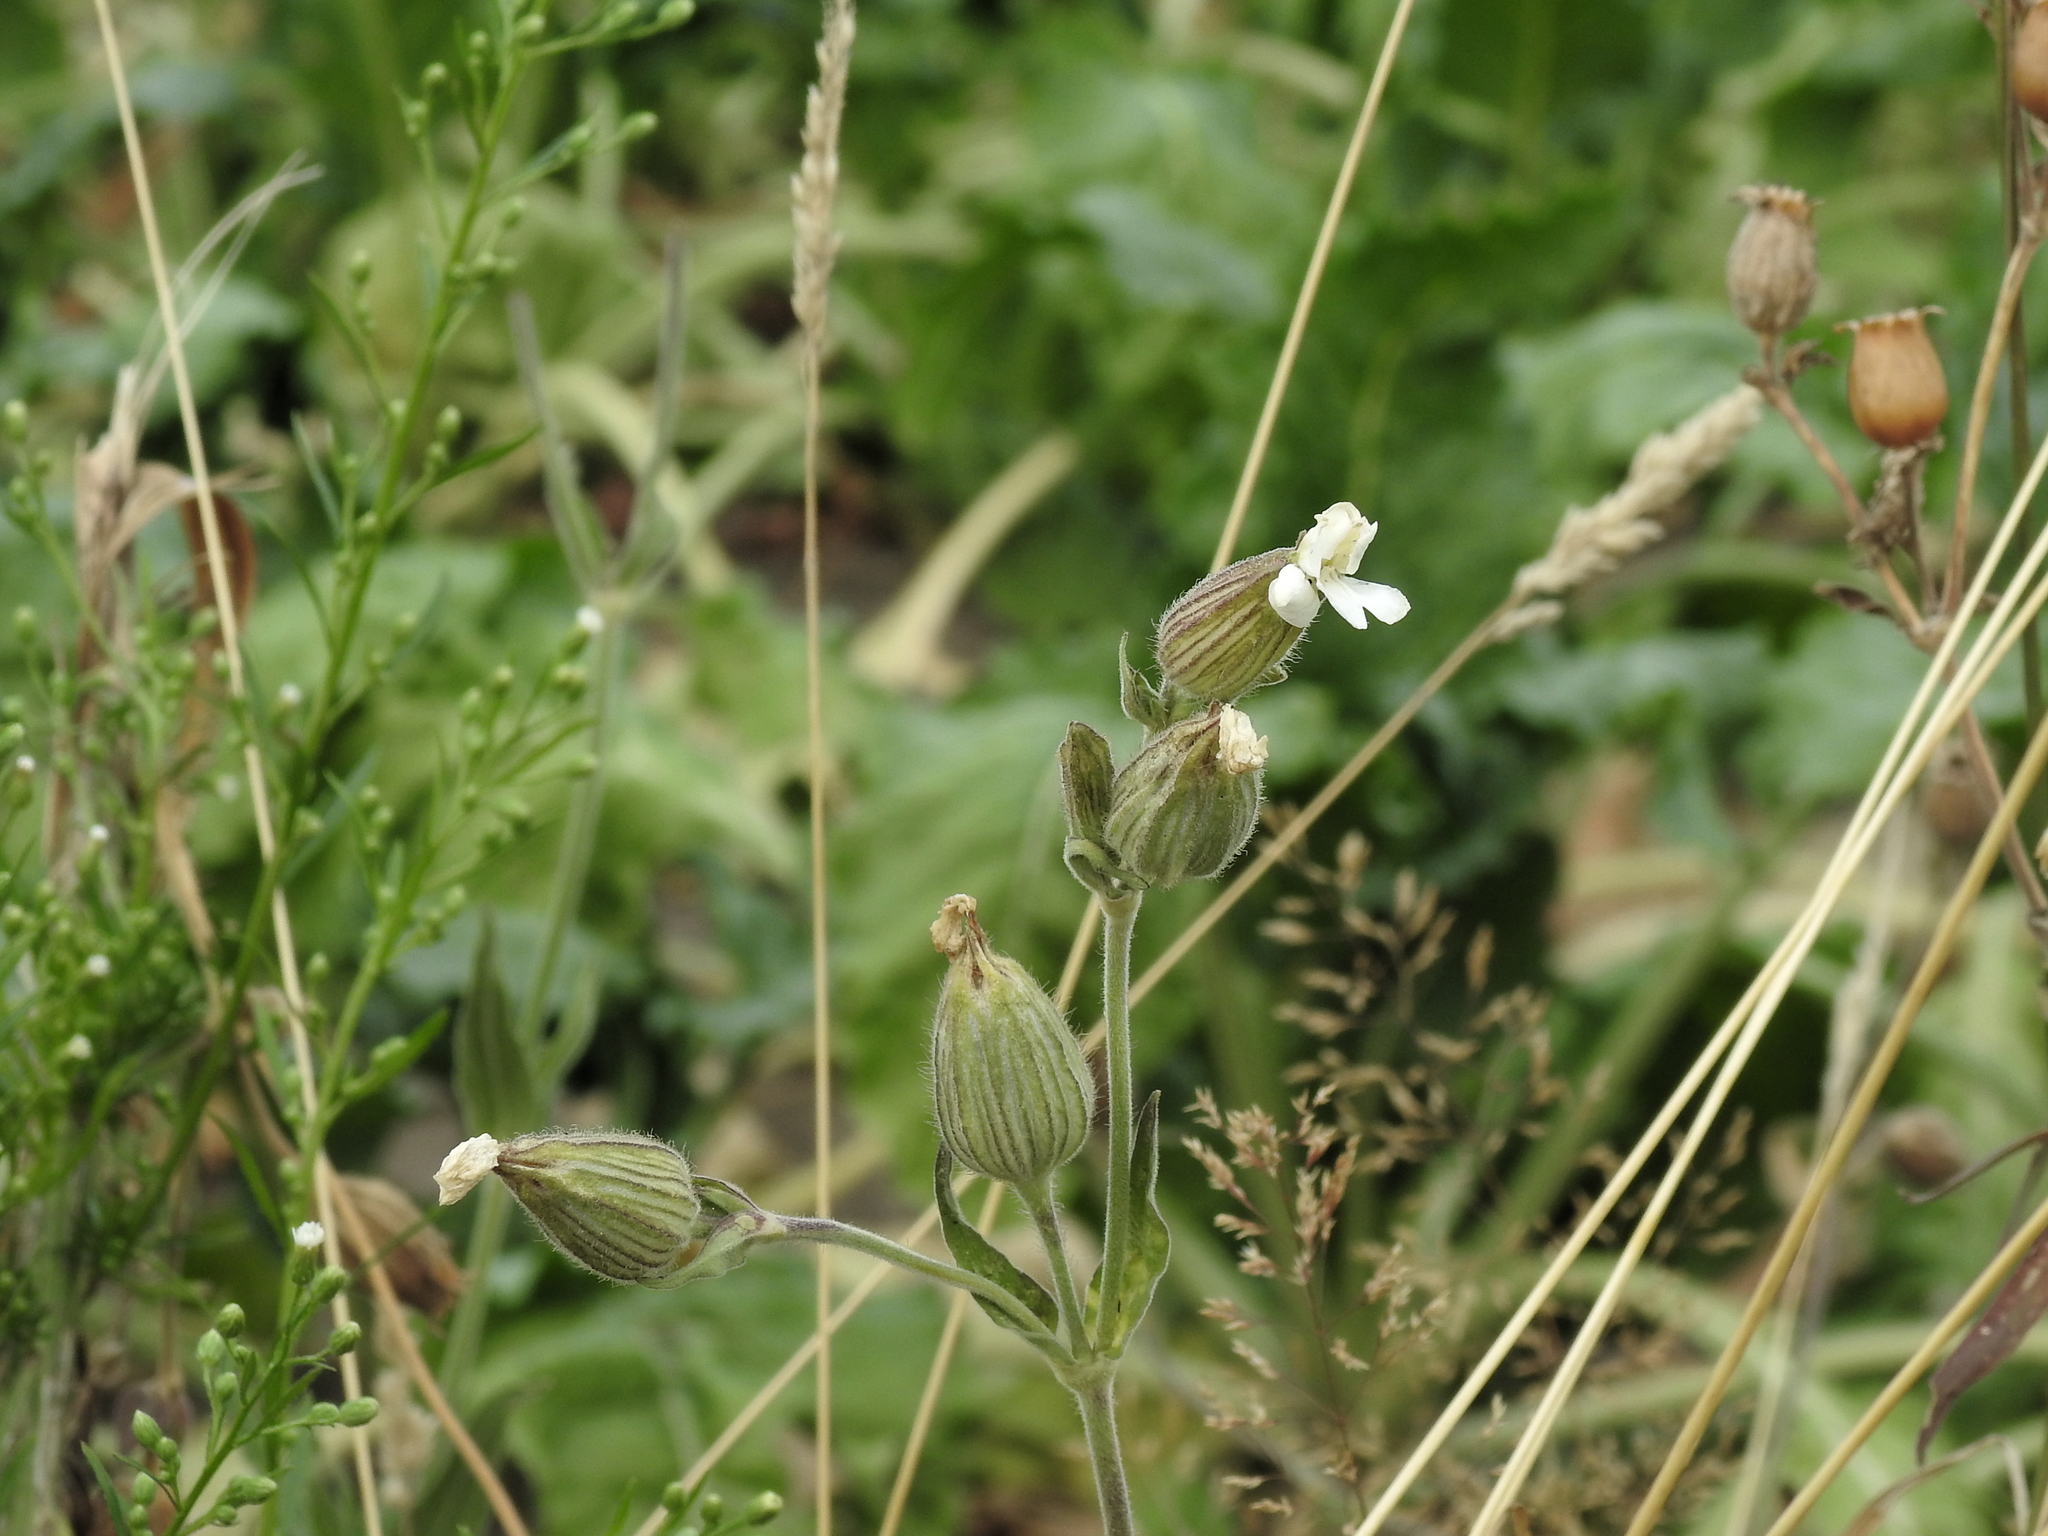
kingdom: Plantae
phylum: Tracheophyta
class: Magnoliopsida
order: Caryophyllales
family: Caryophyllaceae
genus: Silene
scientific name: Silene latifolia
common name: White campion
